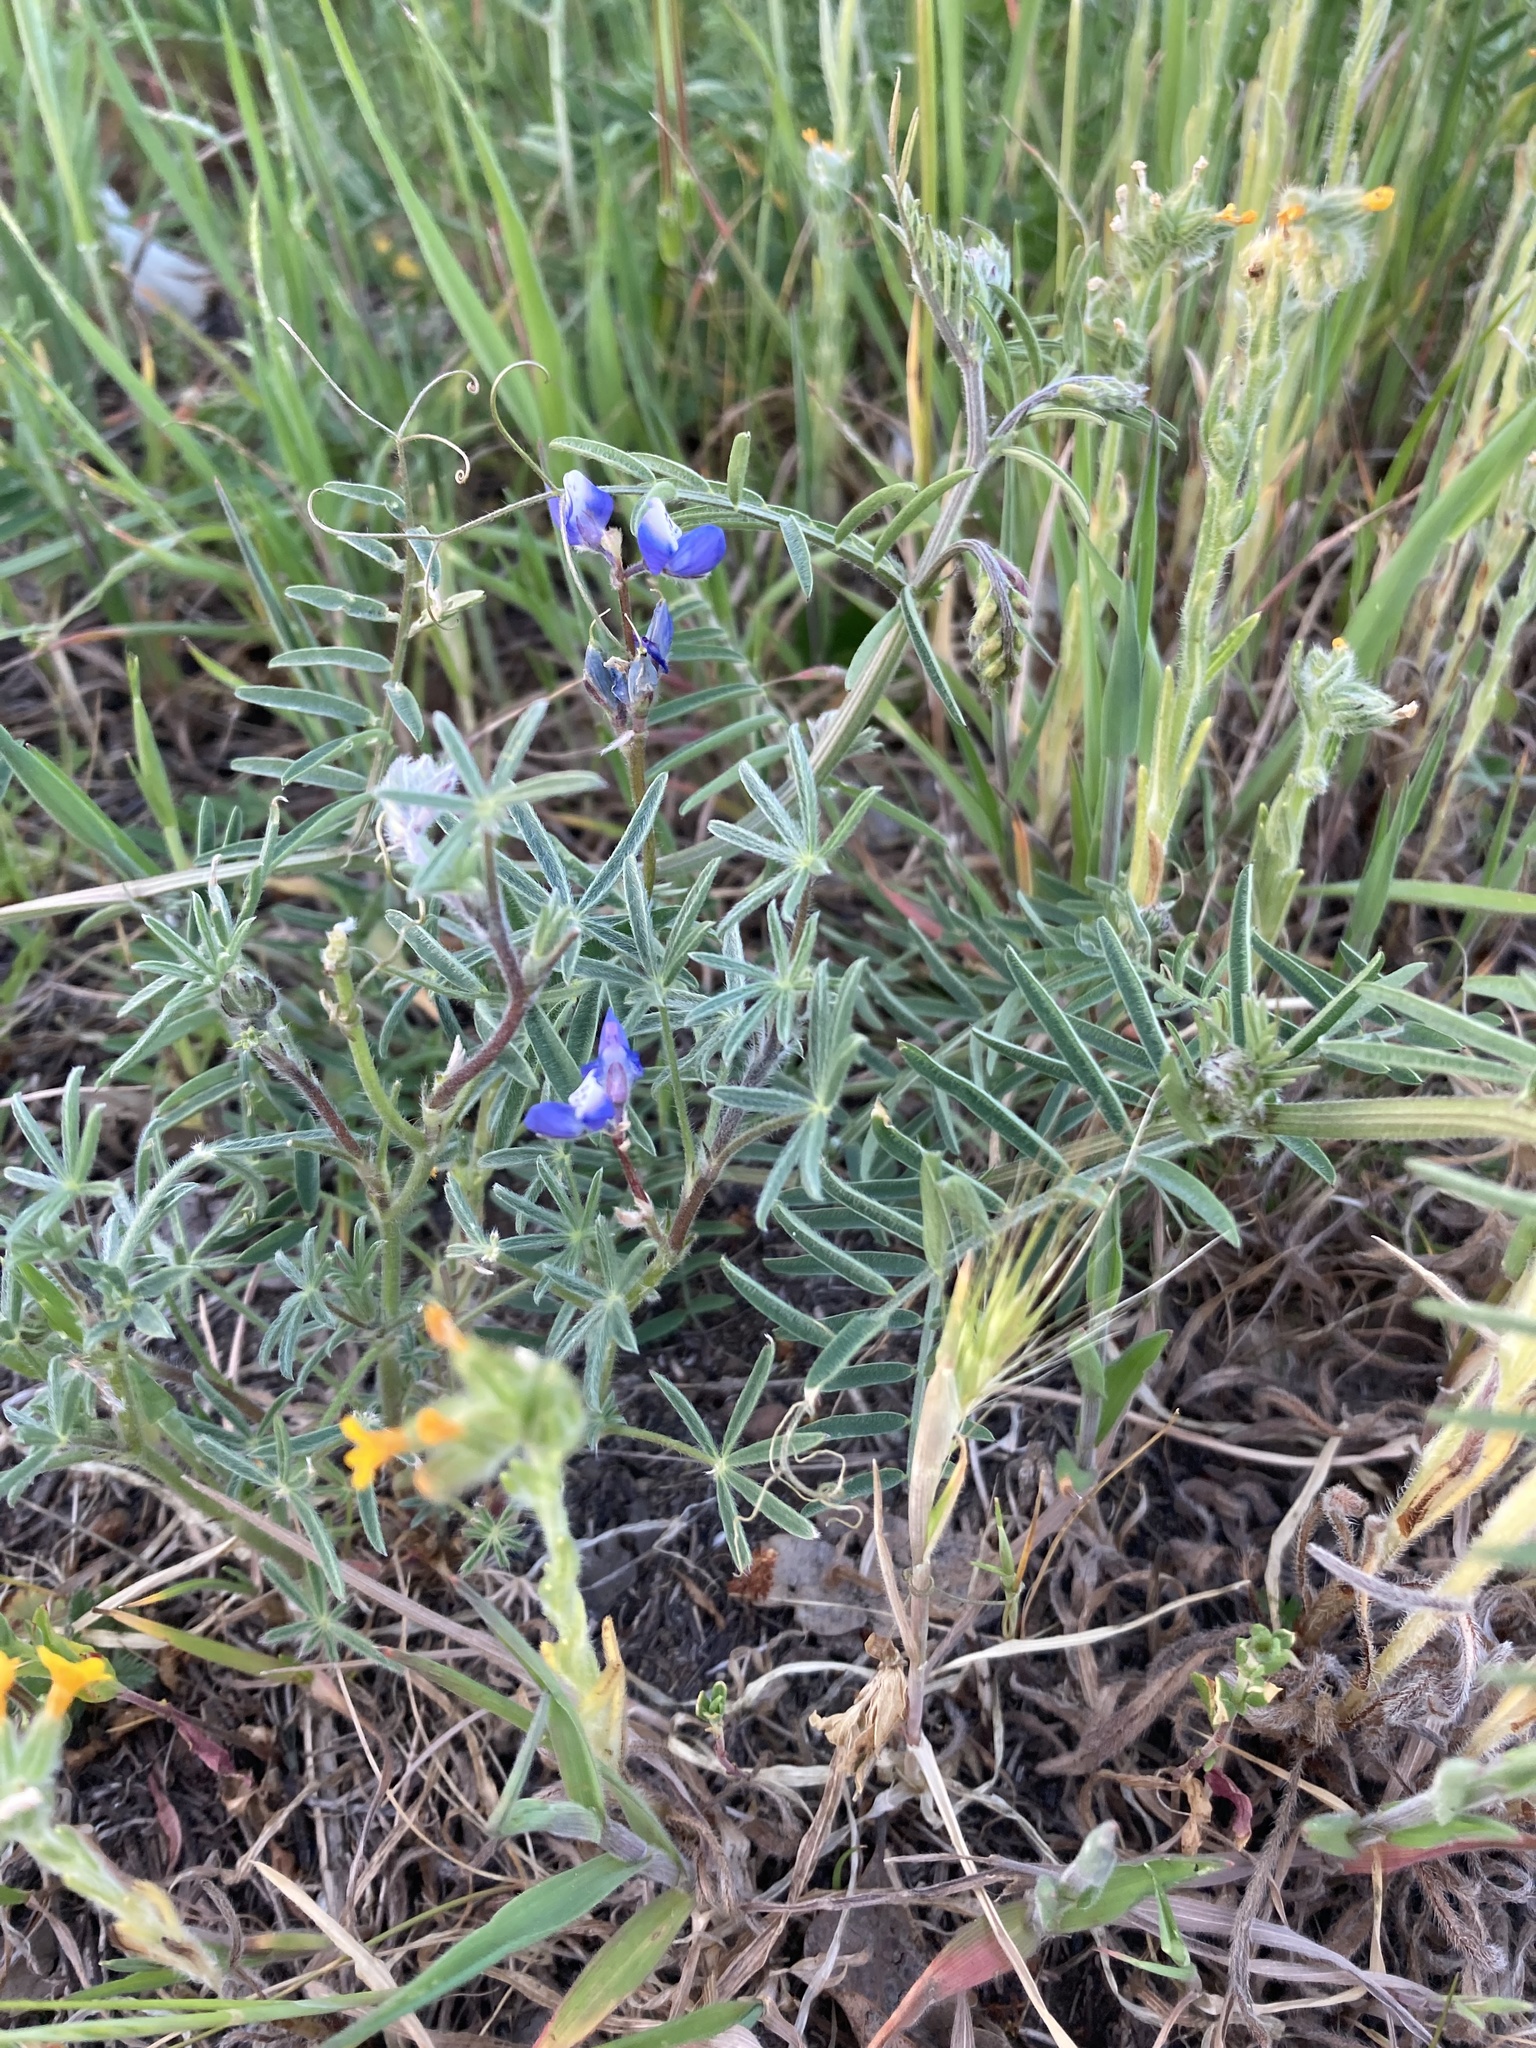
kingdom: Plantae
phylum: Tracheophyta
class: Magnoliopsida
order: Fabales
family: Fabaceae
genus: Lupinus
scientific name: Lupinus bicolor
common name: Miniature lupine
